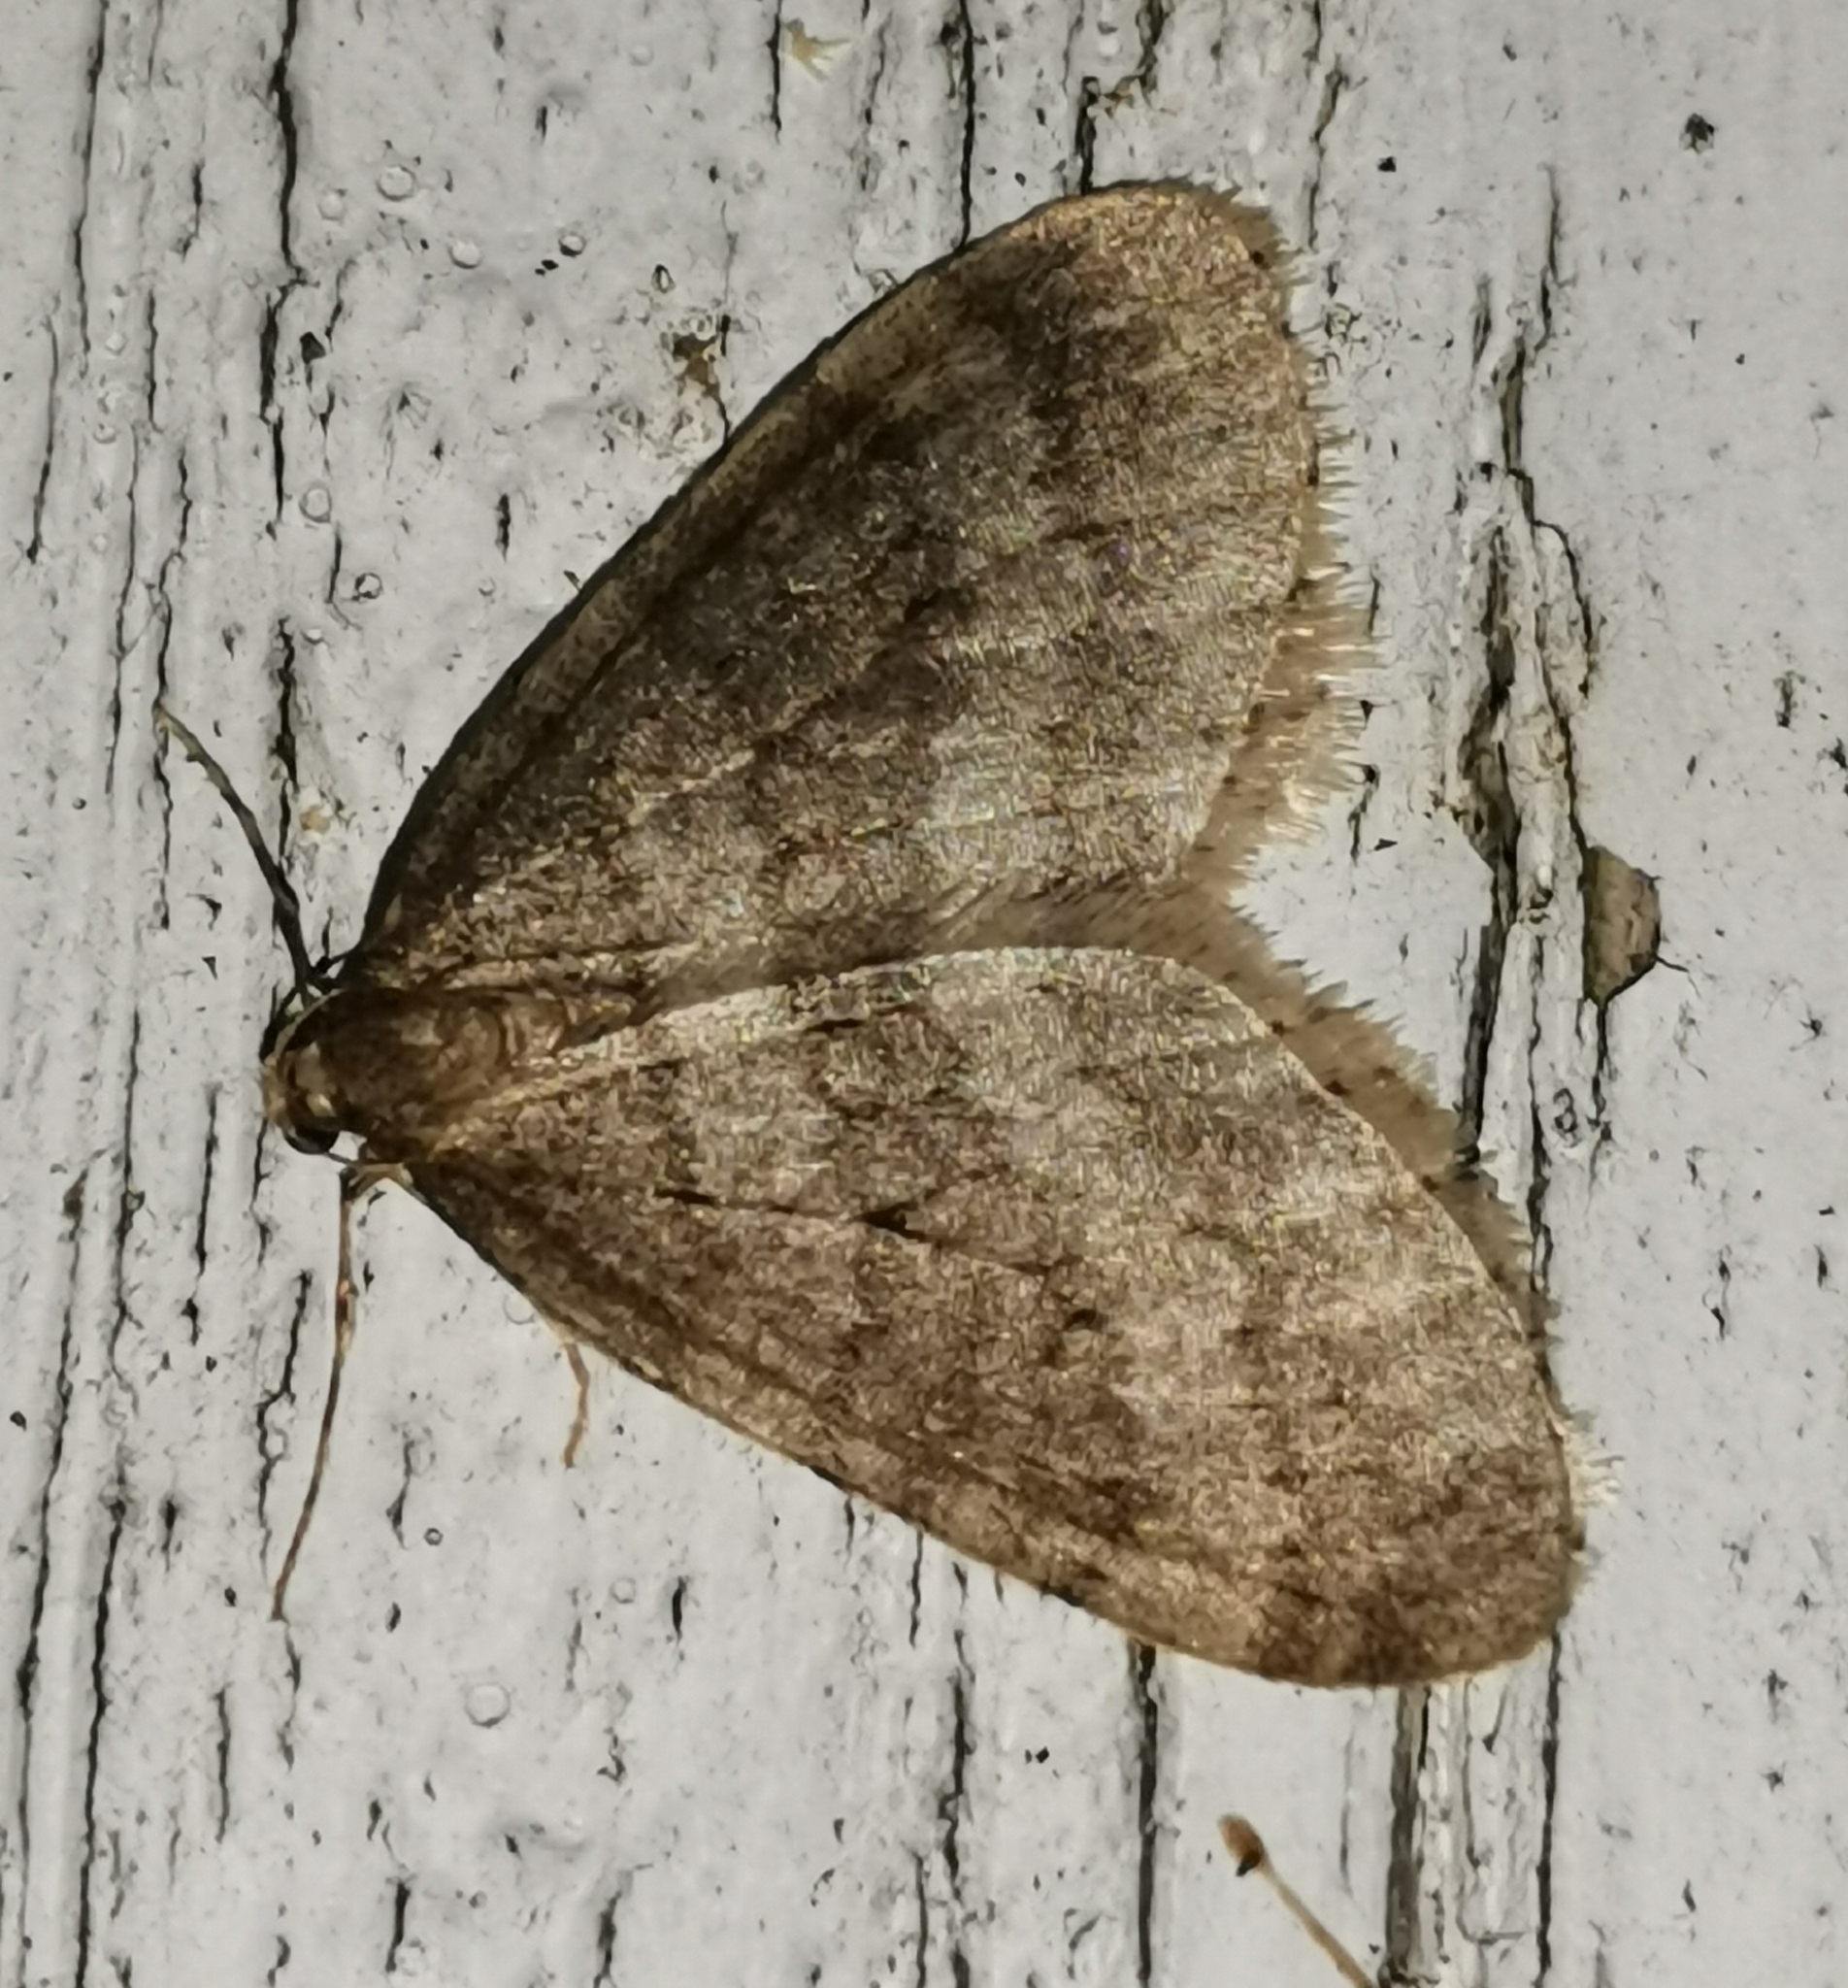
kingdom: Animalia
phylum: Arthropoda
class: Insecta
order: Lepidoptera
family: Geometridae
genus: Operophtera
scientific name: Operophtera brumata
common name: Winter moth
